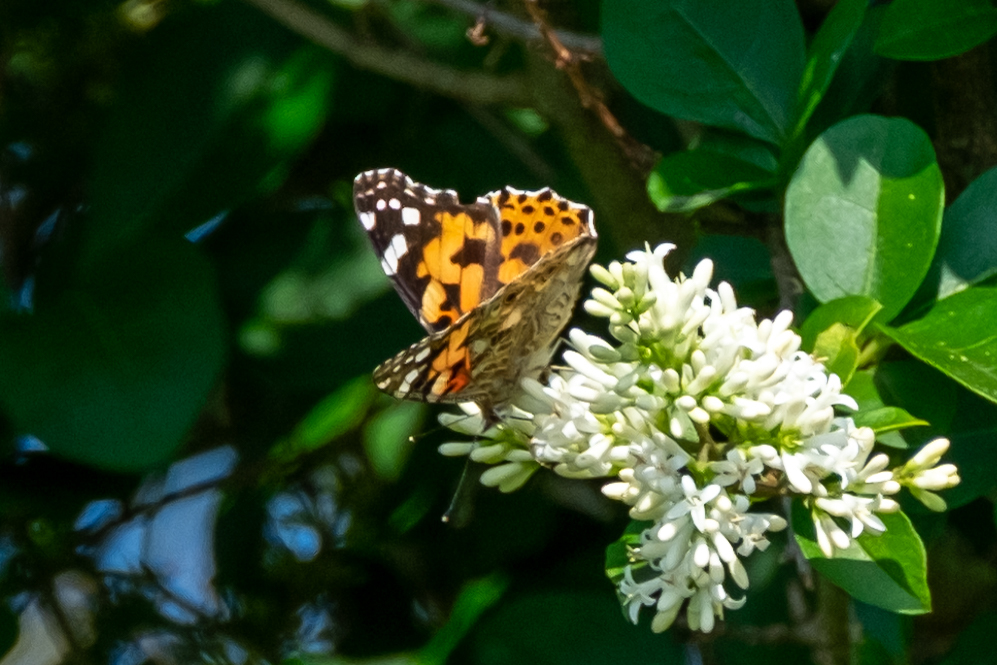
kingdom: Animalia
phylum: Arthropoda
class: Insecta
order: Lepidoptera
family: Nymphalidae
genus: Vanessa
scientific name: Vanessa cardui
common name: Painted lady
